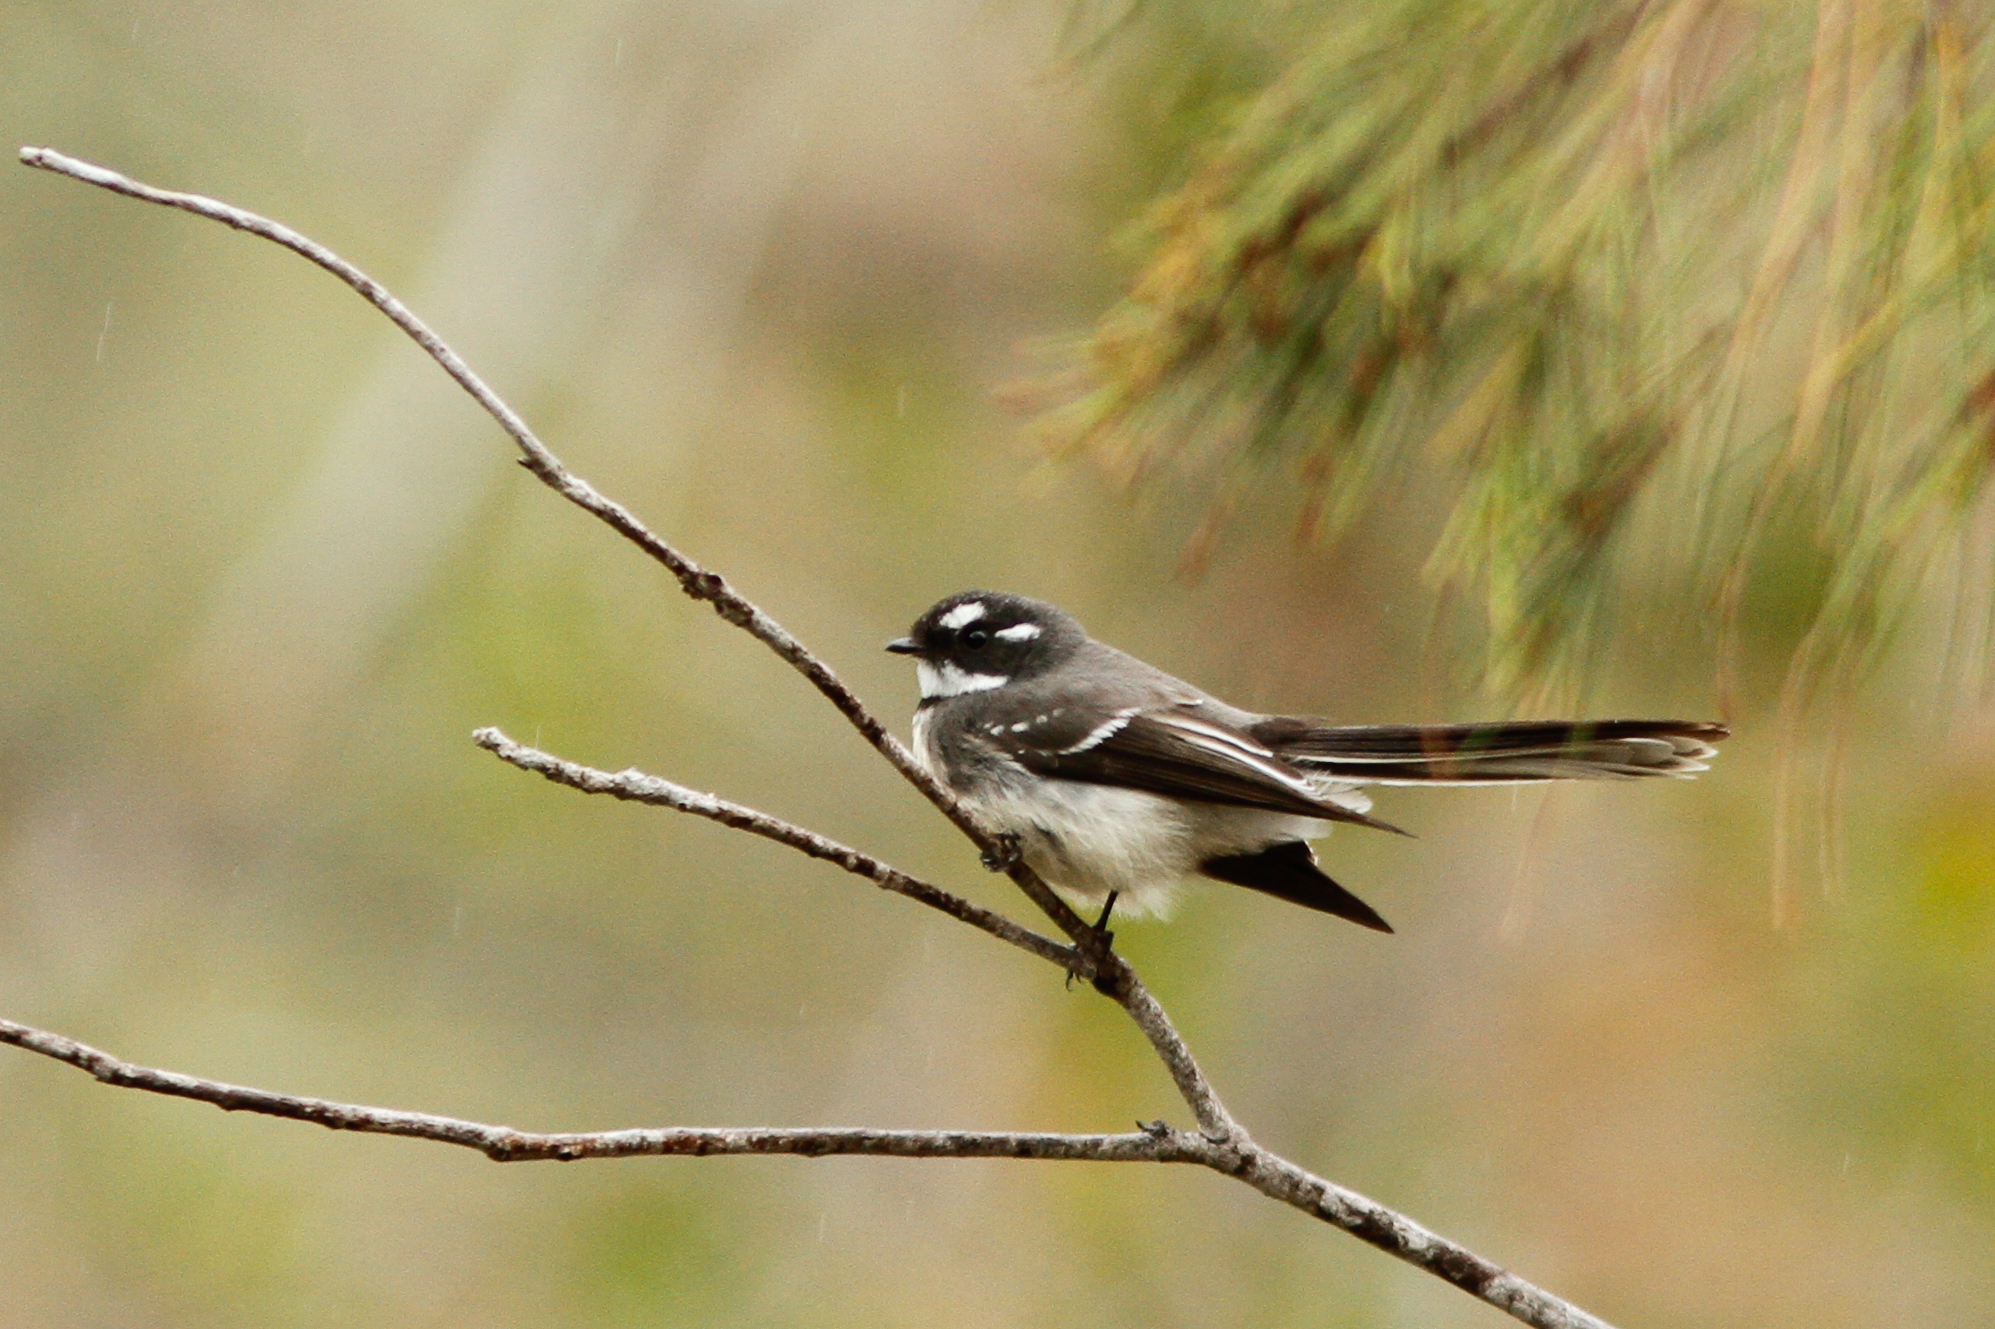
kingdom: Animalia
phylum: Chordata
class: Aves
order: Passeriformes
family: Rhipiduridae
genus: Rhipidura
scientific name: Rhipidura albiscapa
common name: Grey fantail
